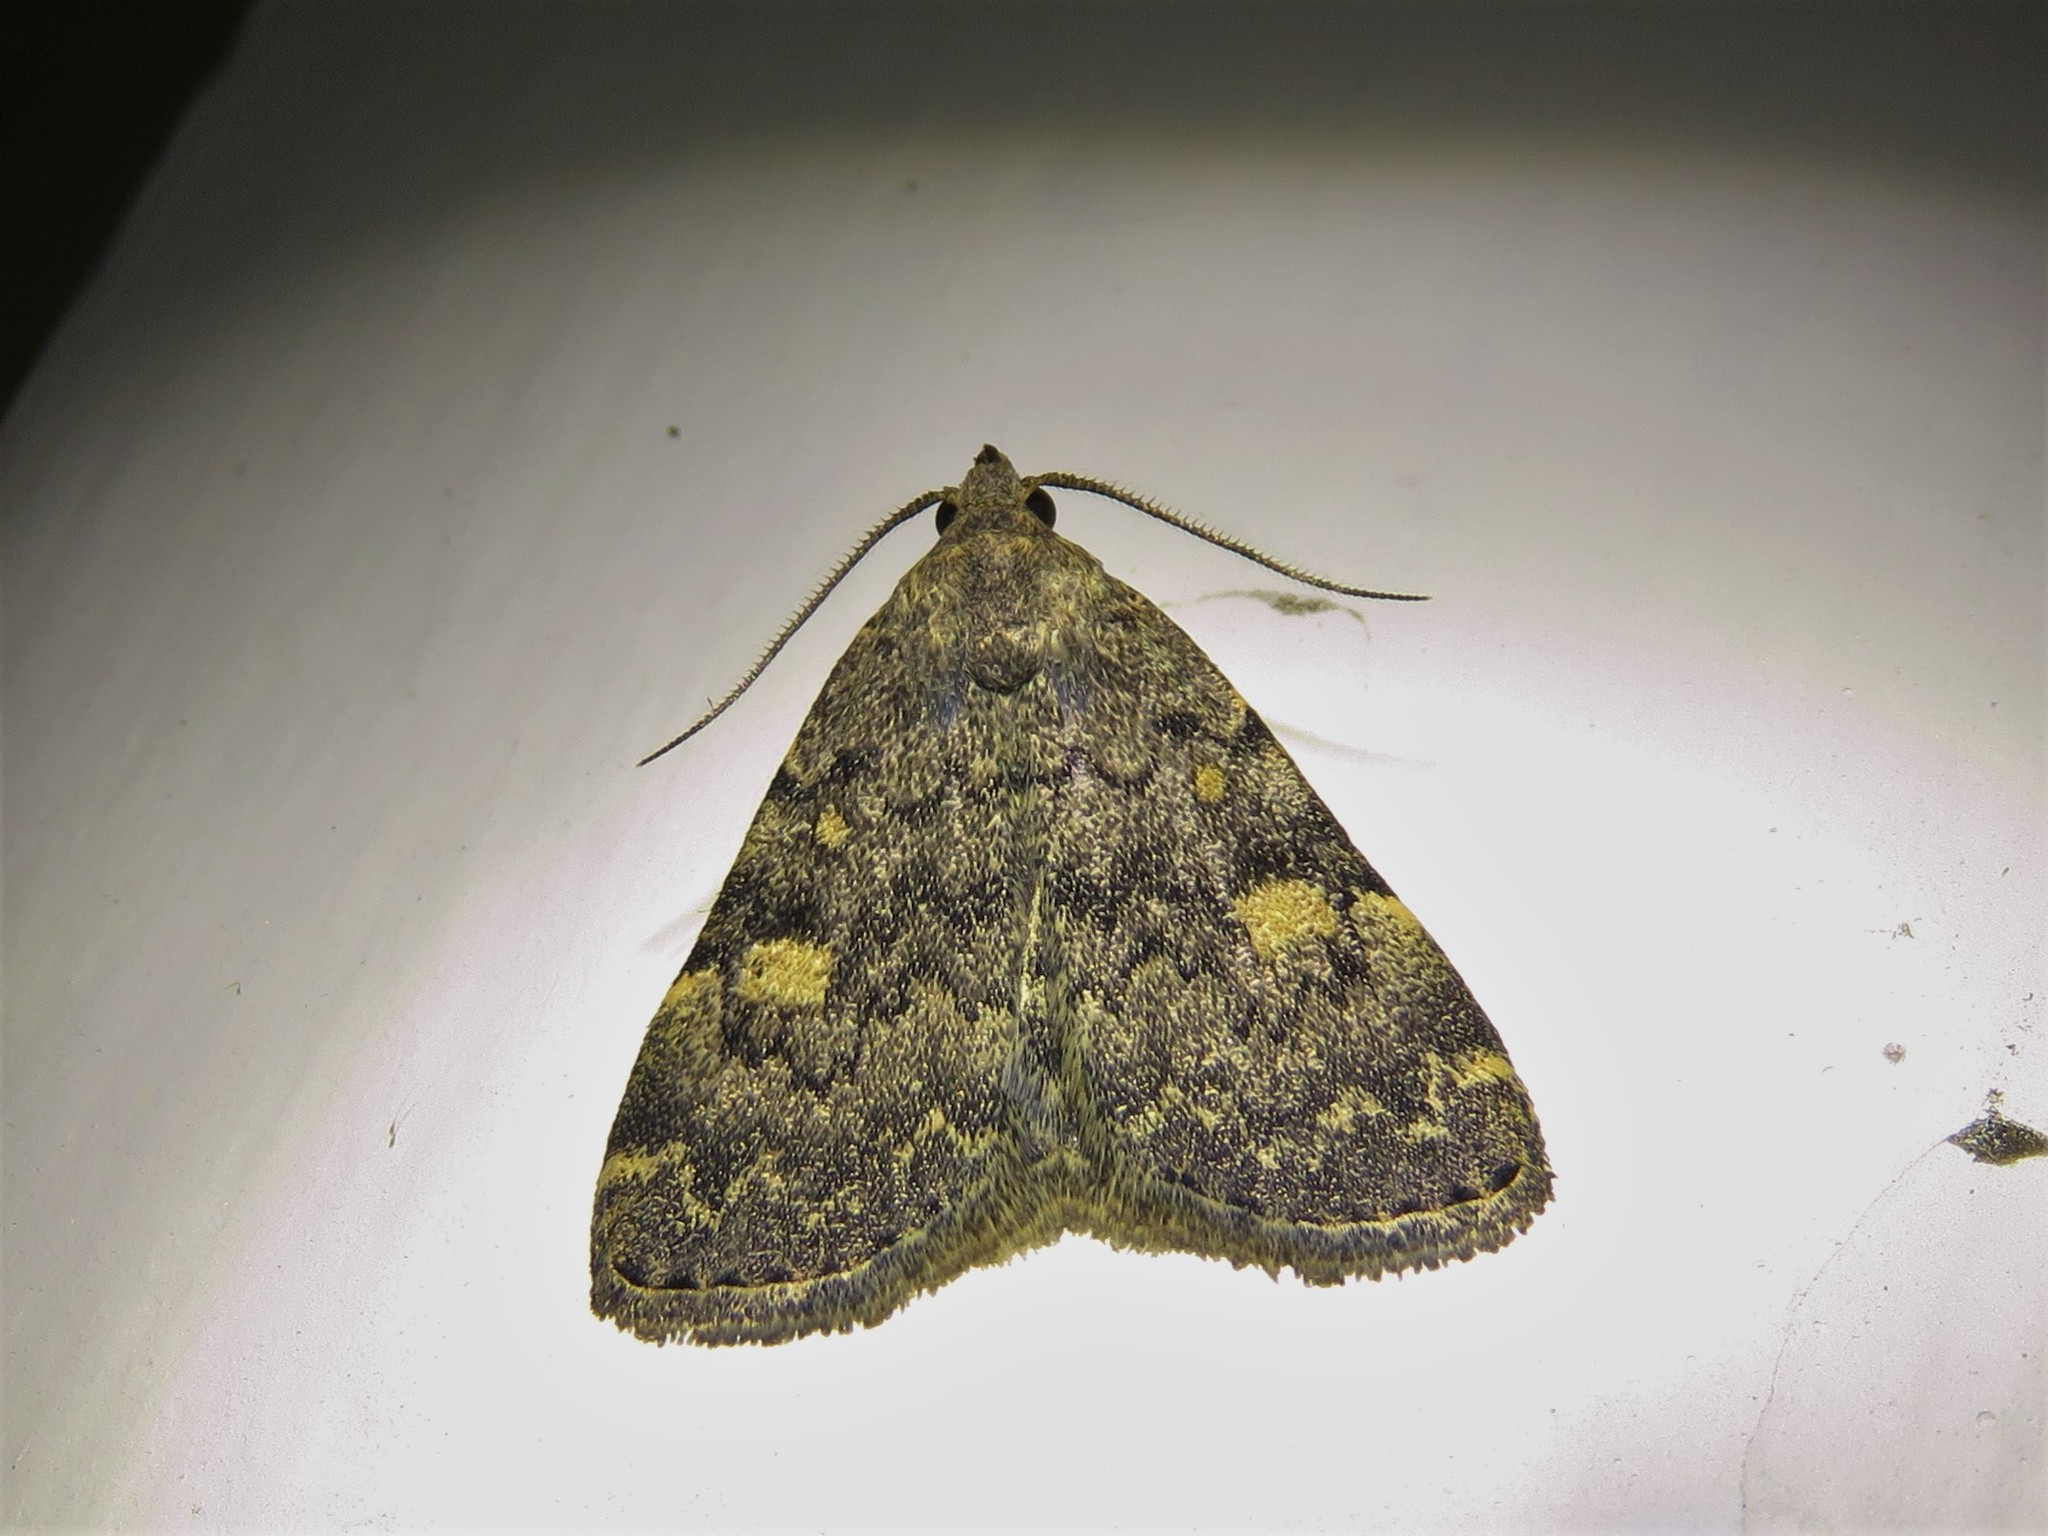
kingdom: Animalia
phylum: Arthropoda
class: Insecta
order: Lepidoptera
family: Erebidae
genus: Idia
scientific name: Idia aemula
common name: Common idia moth
